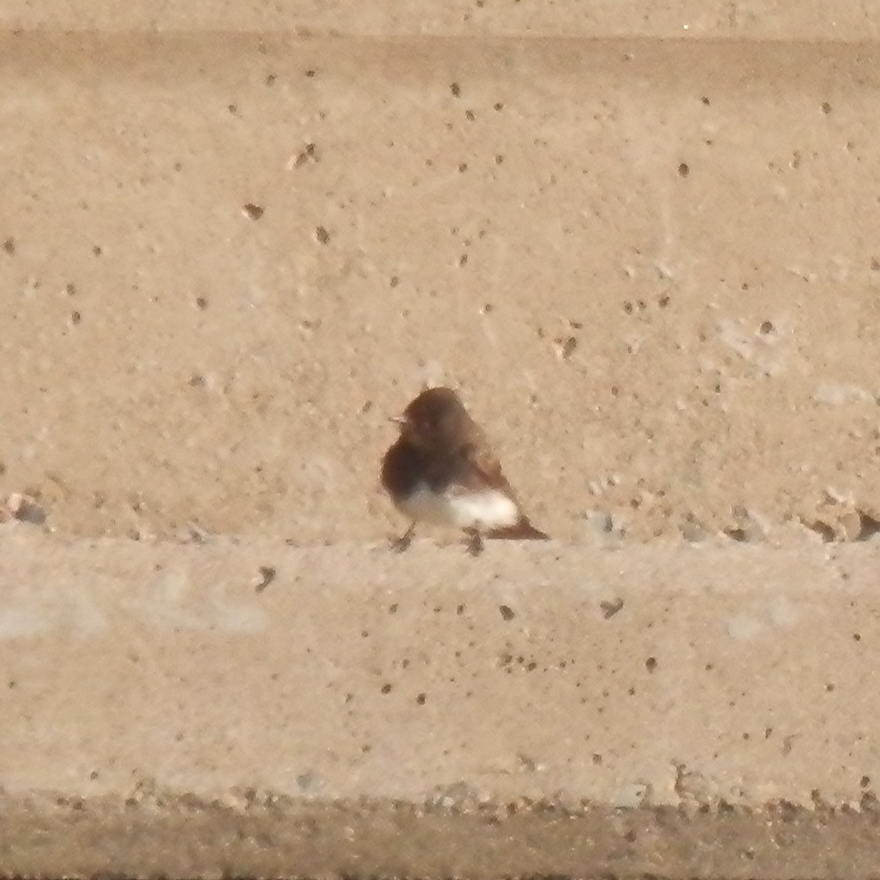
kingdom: Animalia
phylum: Chordata
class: Aves
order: Passeriformes
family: Tyrannidae
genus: Sayornis
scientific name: Sayornis nigricans
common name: Black phoebe
